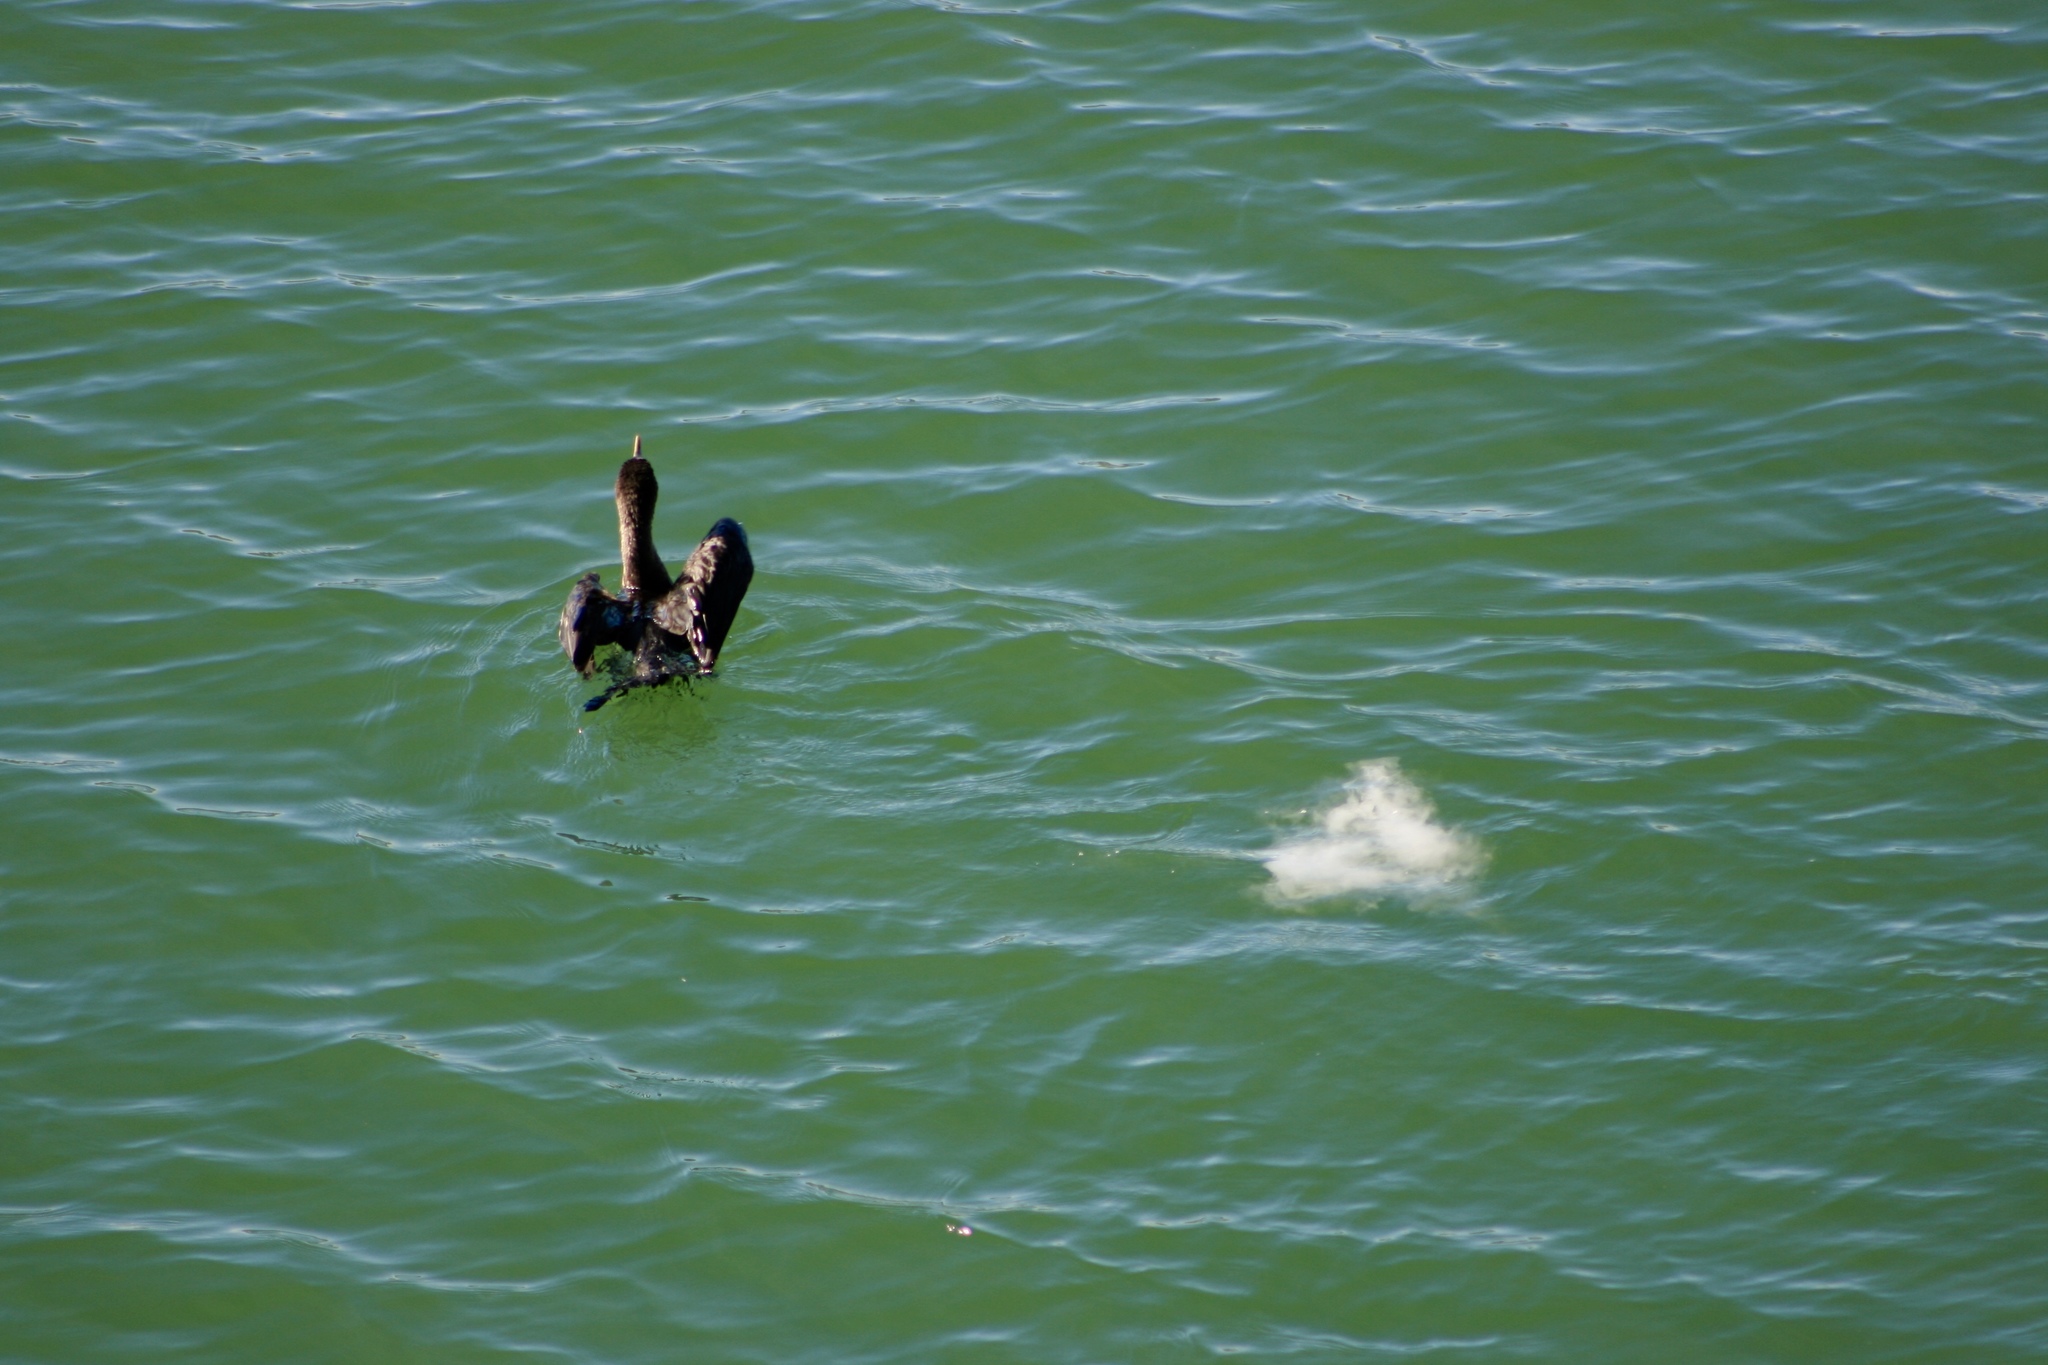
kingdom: Animalia
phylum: Chordata
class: Aves
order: Suliformes
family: Phalacrocoracidae
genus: Phalacrocorax
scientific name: Phalacrocorax auritus
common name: Double-crested cormorant
